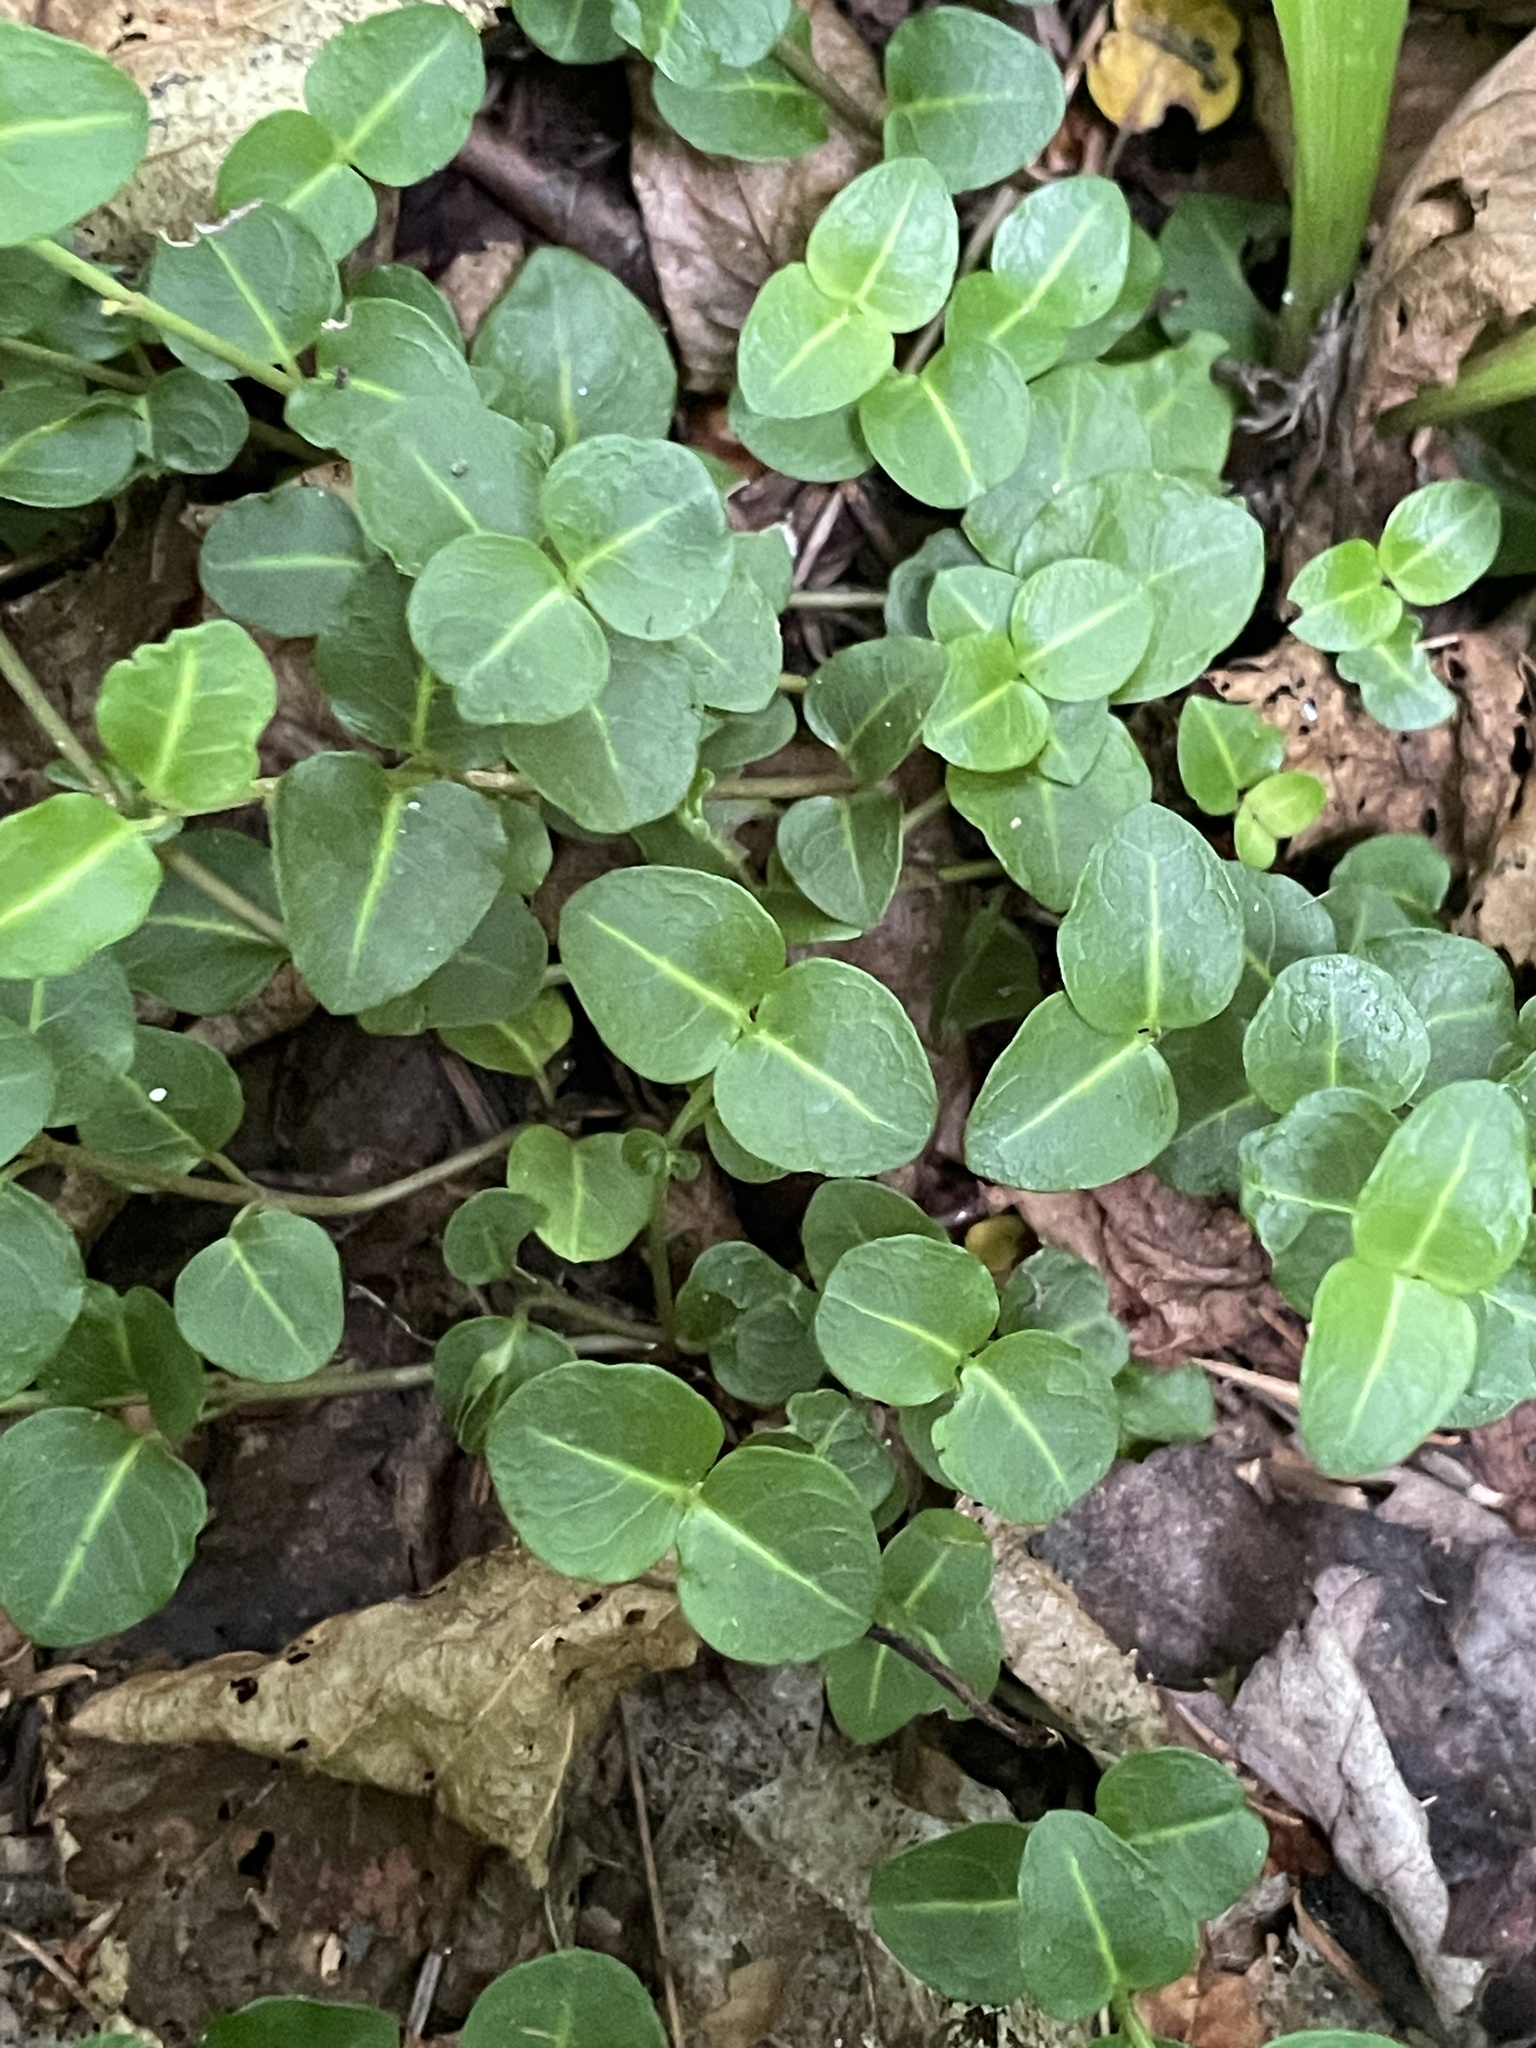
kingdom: Plantae
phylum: Tracheophyta
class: Magnoliopsida
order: Gentianales
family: Rubiaceae
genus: Mitchella
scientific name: Mitchella repens
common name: Partridge-berry
